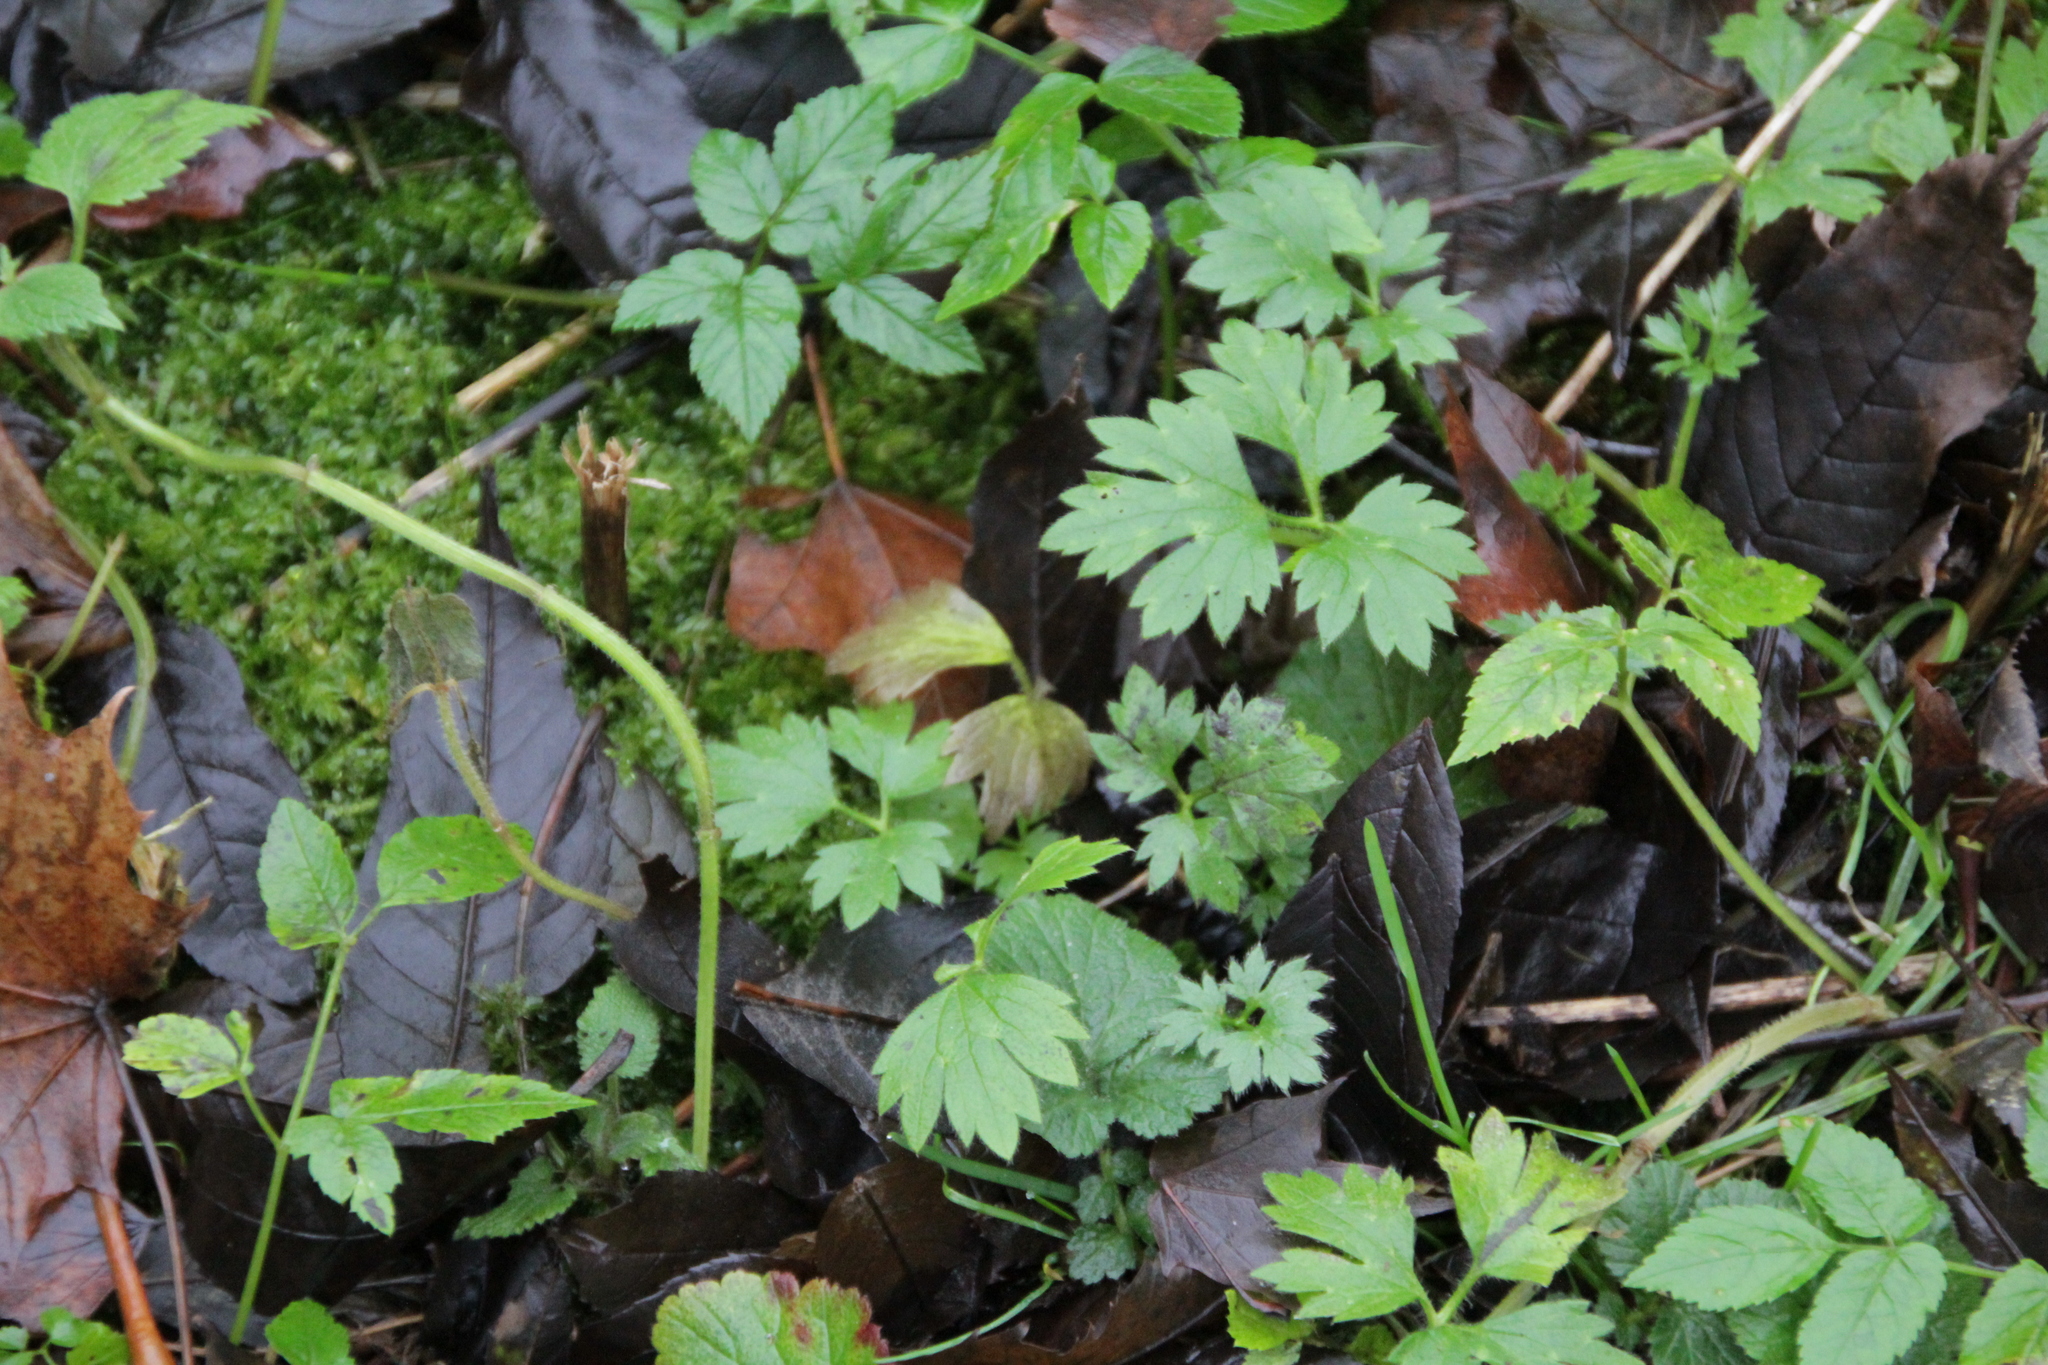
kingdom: Plantae
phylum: Tracheophyta
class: Magnoliopsida
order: Ranunculales
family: Ranunculaceae
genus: Ranunculus
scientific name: Ranunculus repens
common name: Creeping buttercup
